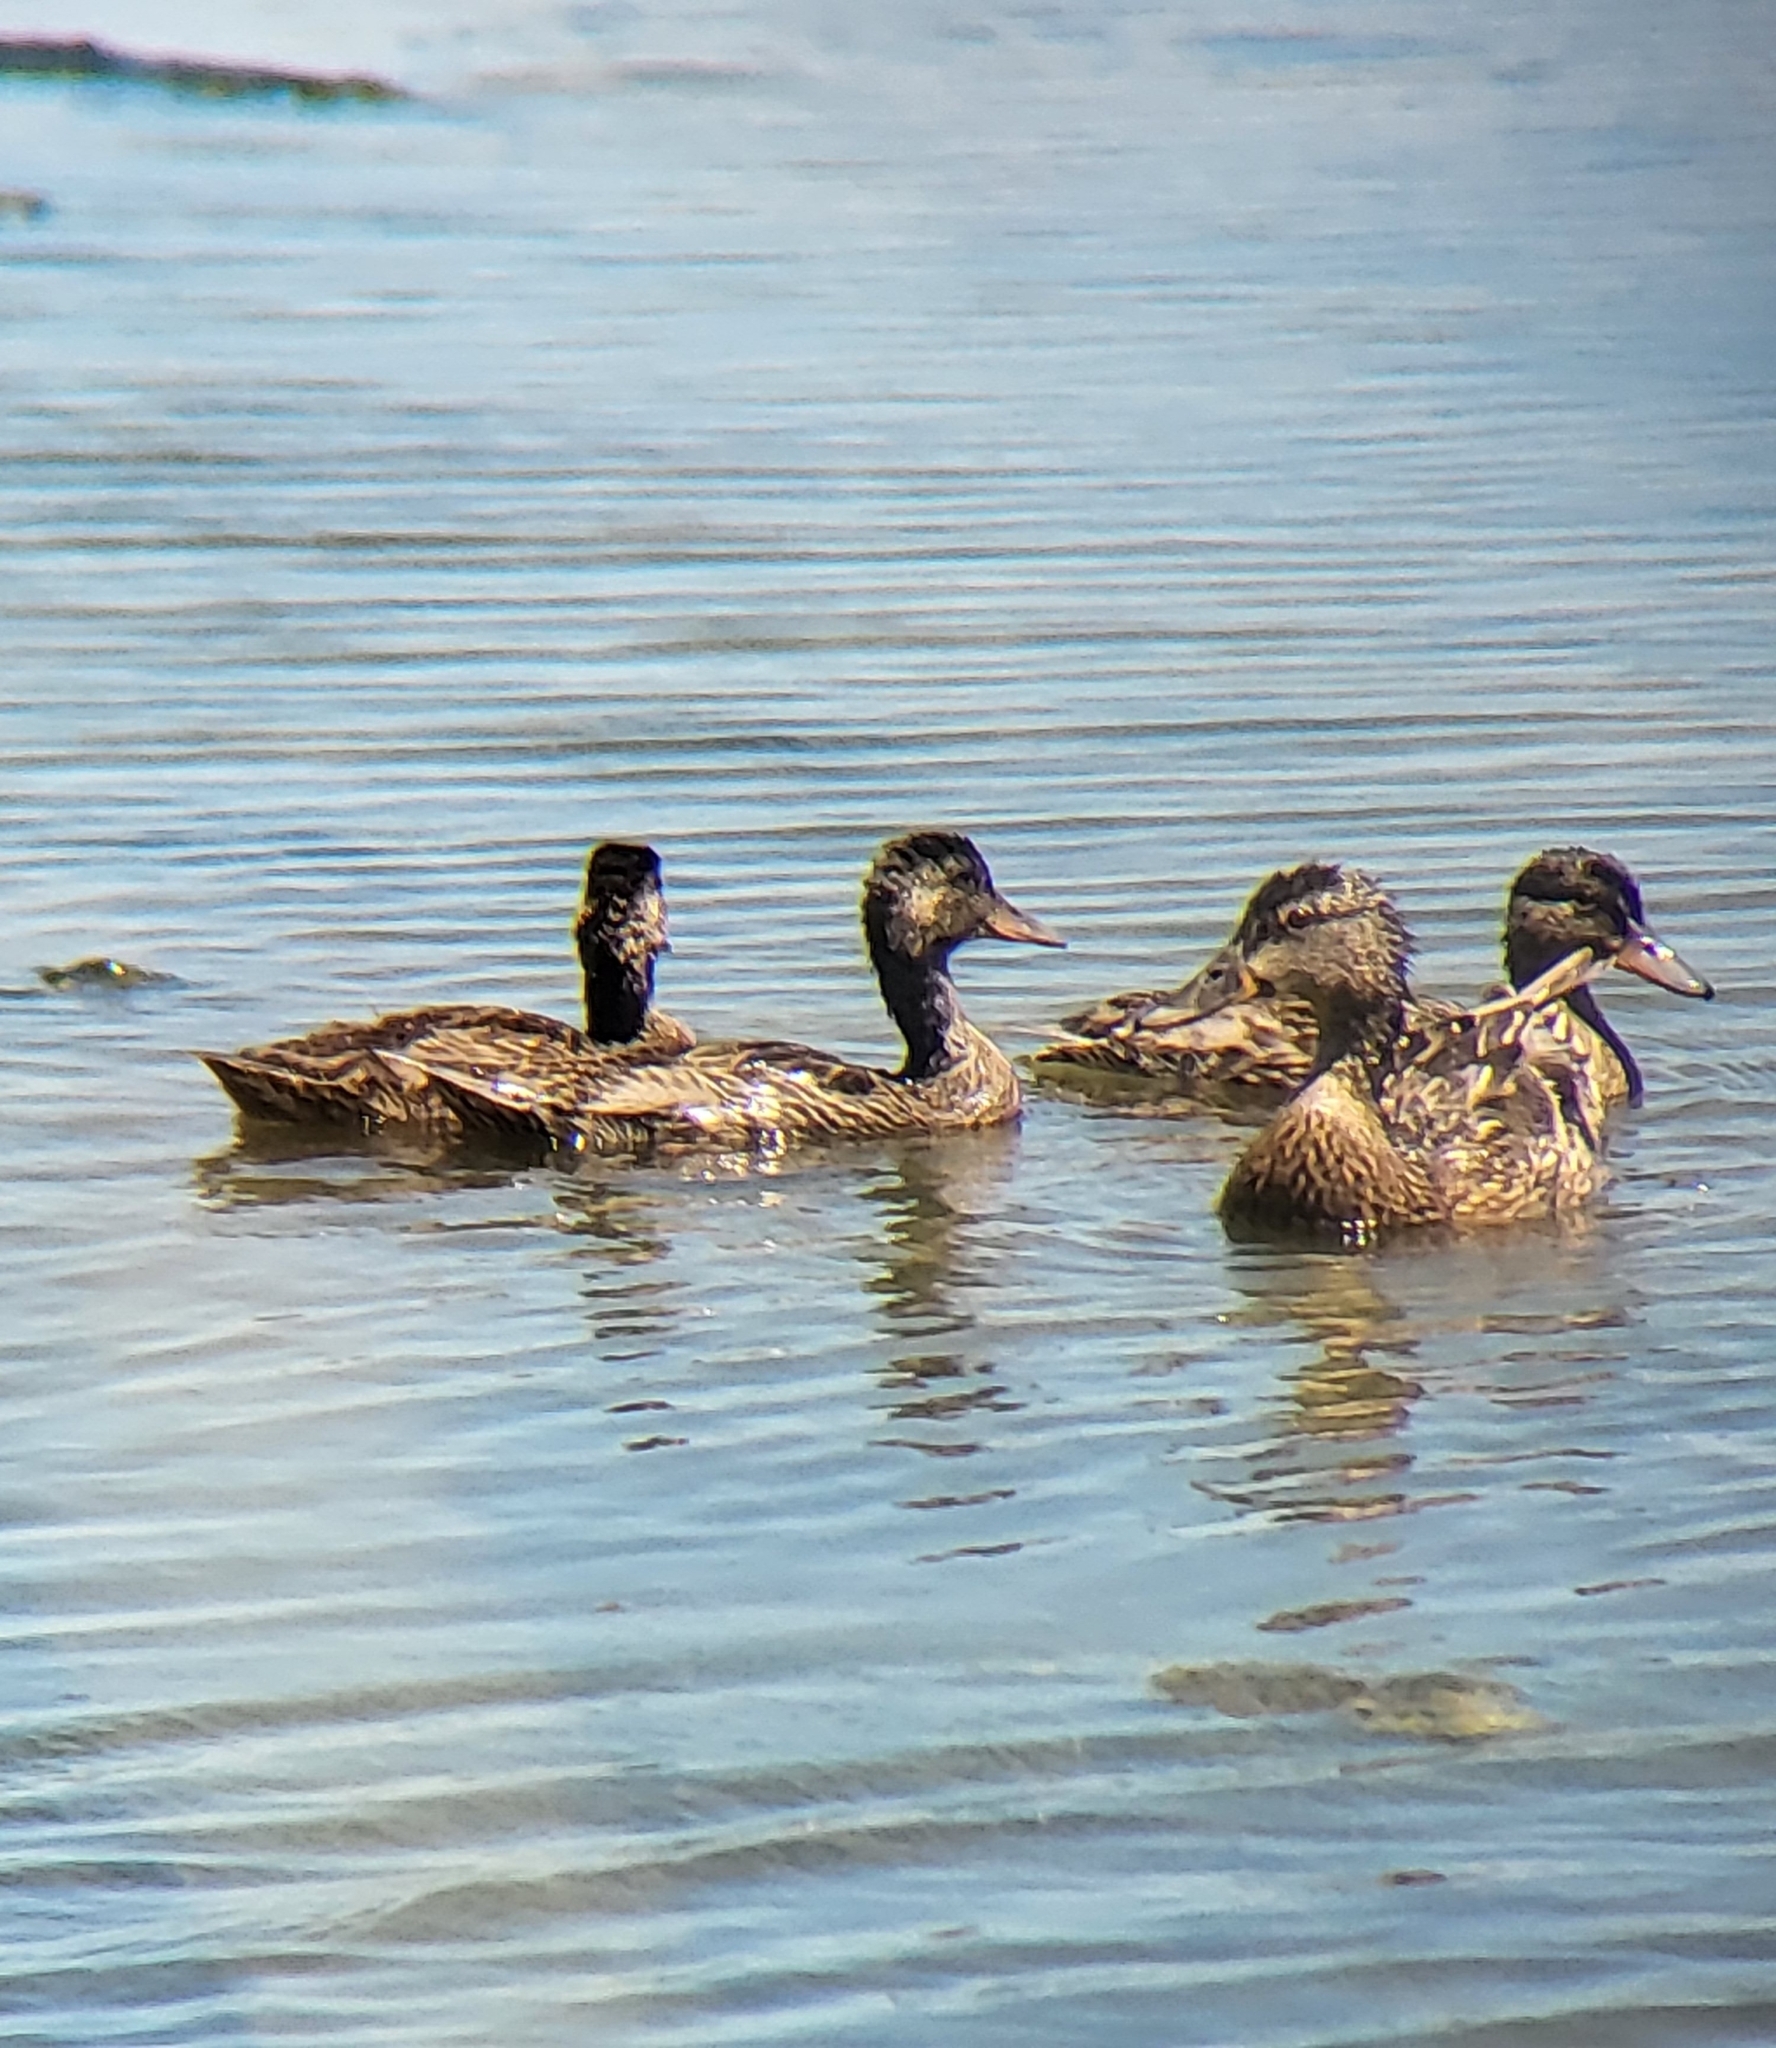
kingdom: Animalia
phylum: Chordata
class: Aves
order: Anseriformes
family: Anatidae
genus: Anas
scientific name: Anas platyrhynchos
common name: Mallard
